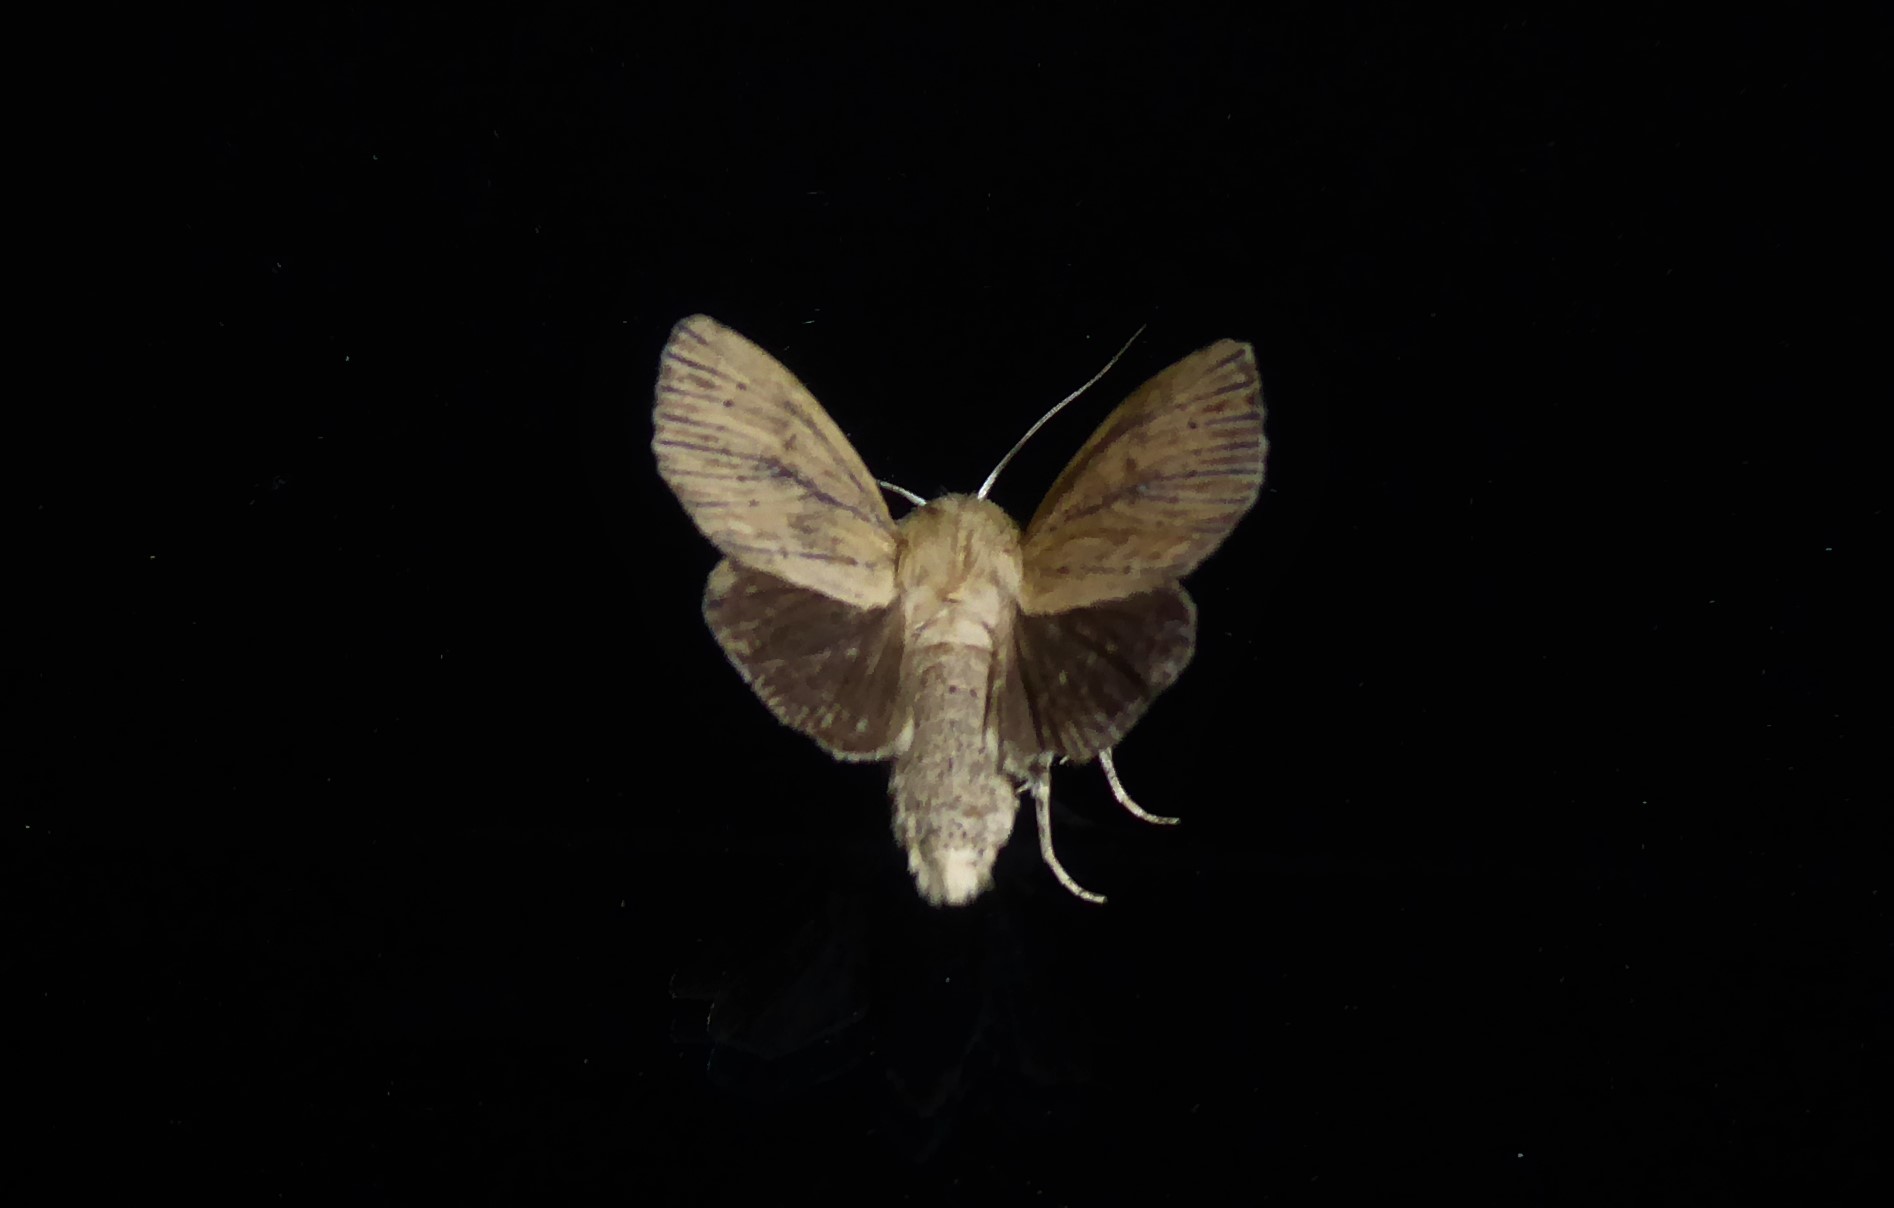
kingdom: Animalia
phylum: Arthropoda
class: Insecta
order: Lepidoptera
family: Noctuidae
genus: Ichneutica
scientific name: Ichneutica arotis
